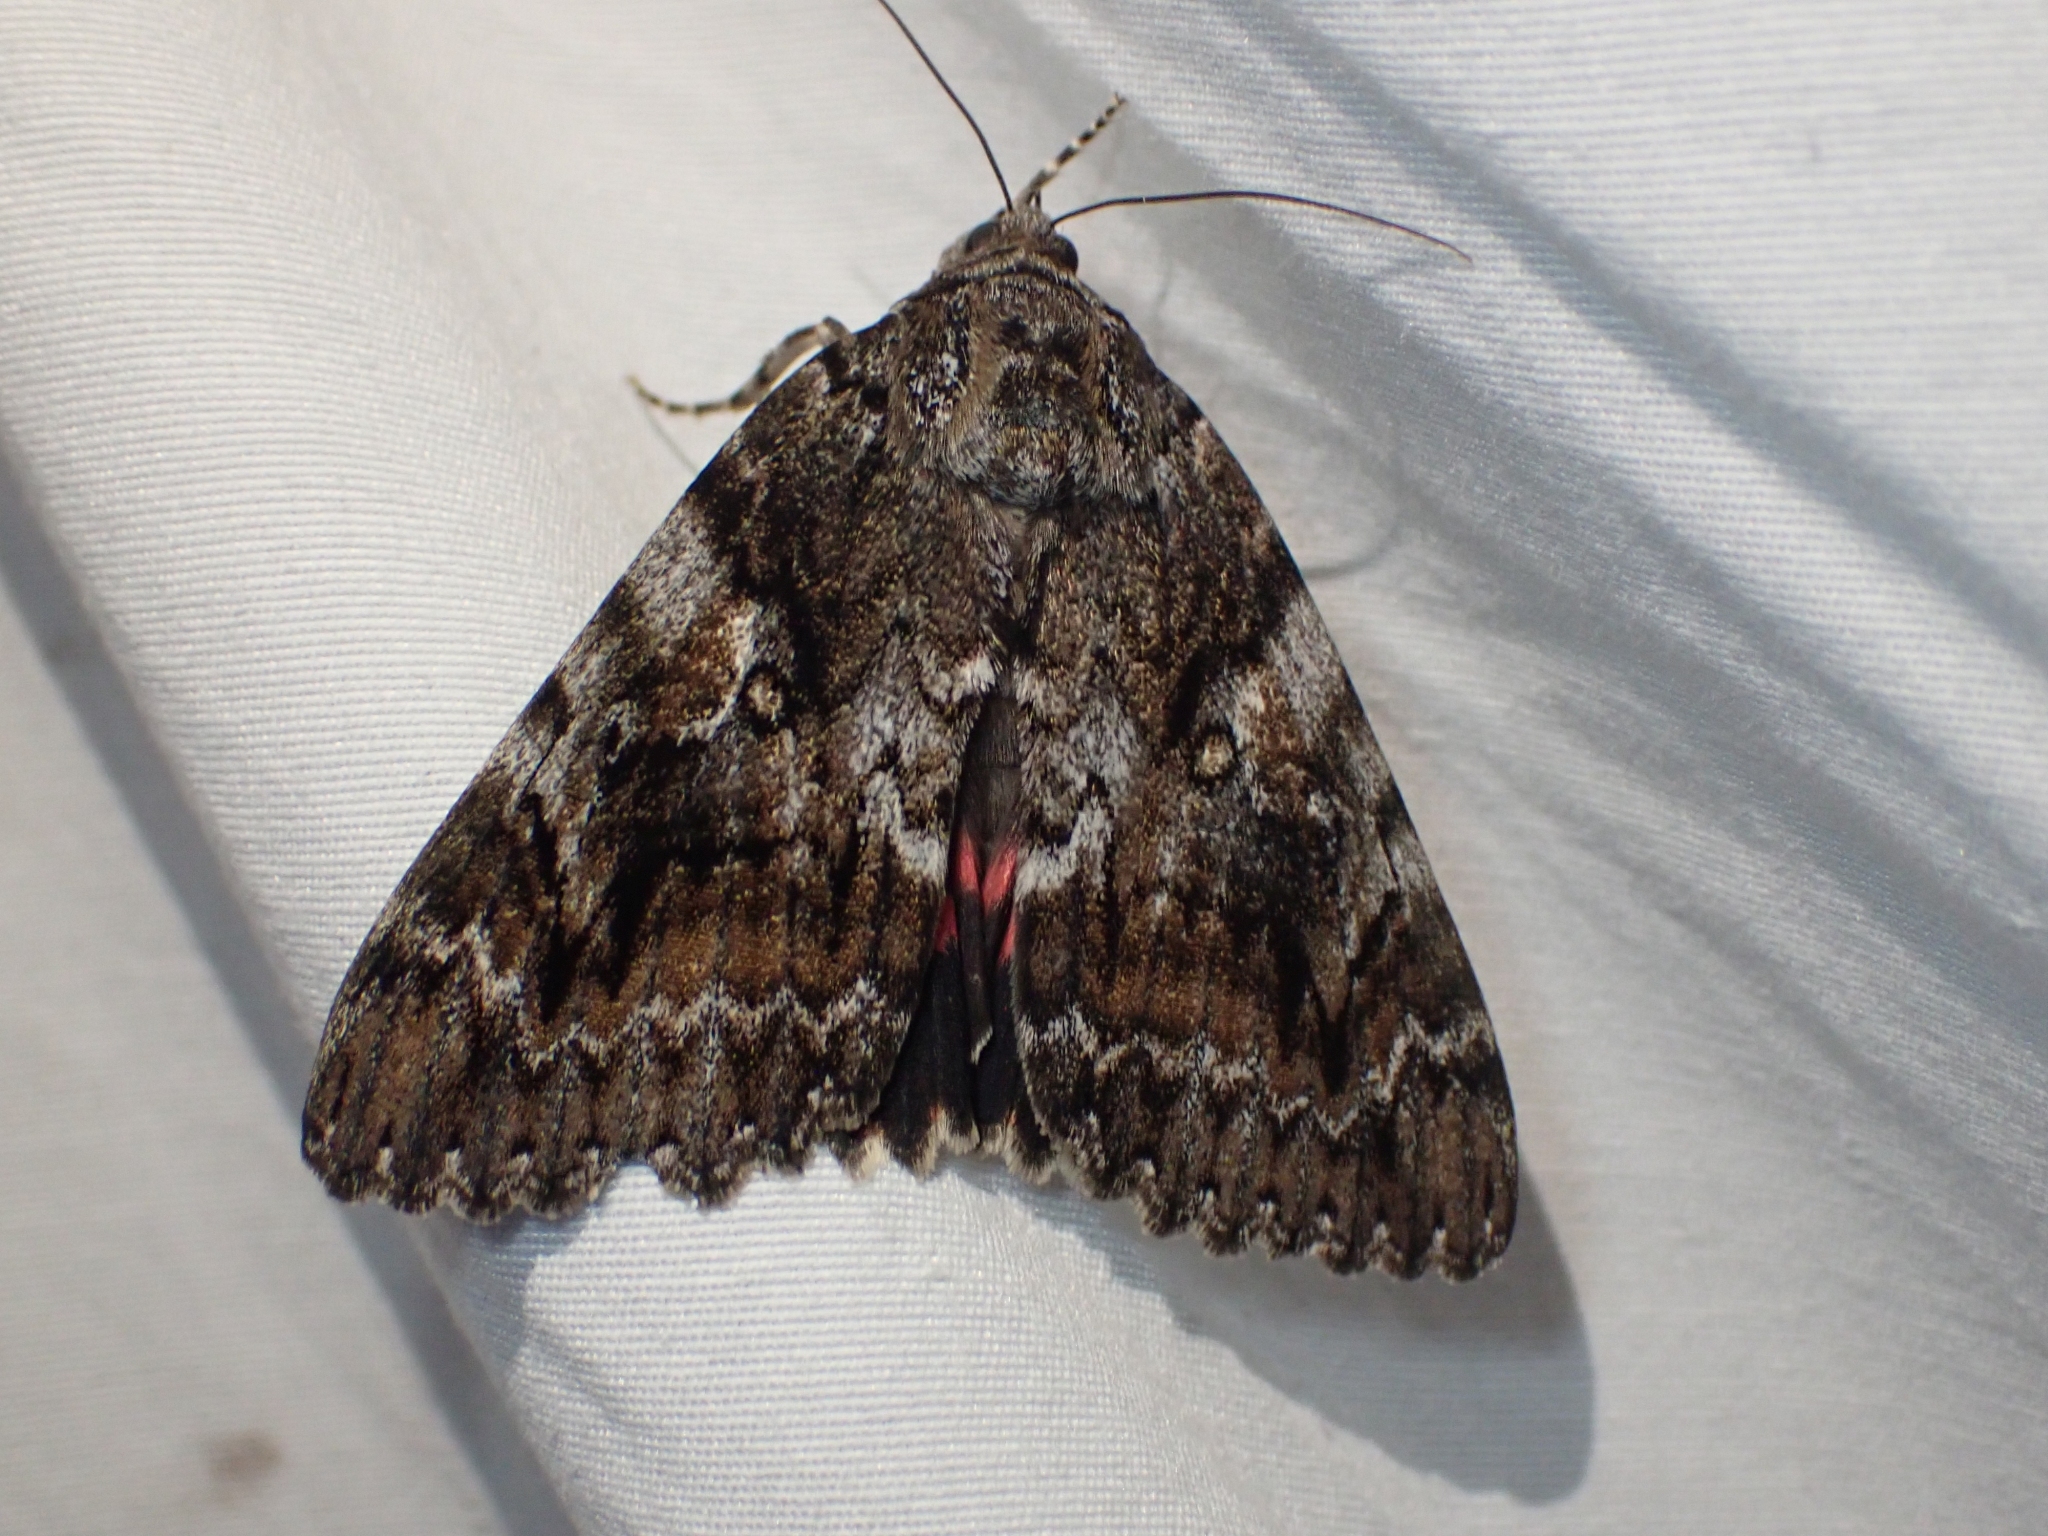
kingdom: Animalia
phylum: Arthropoda
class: Insecta
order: Lepidoptera
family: Erebidae
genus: Catocala
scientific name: Catocala aholibah
